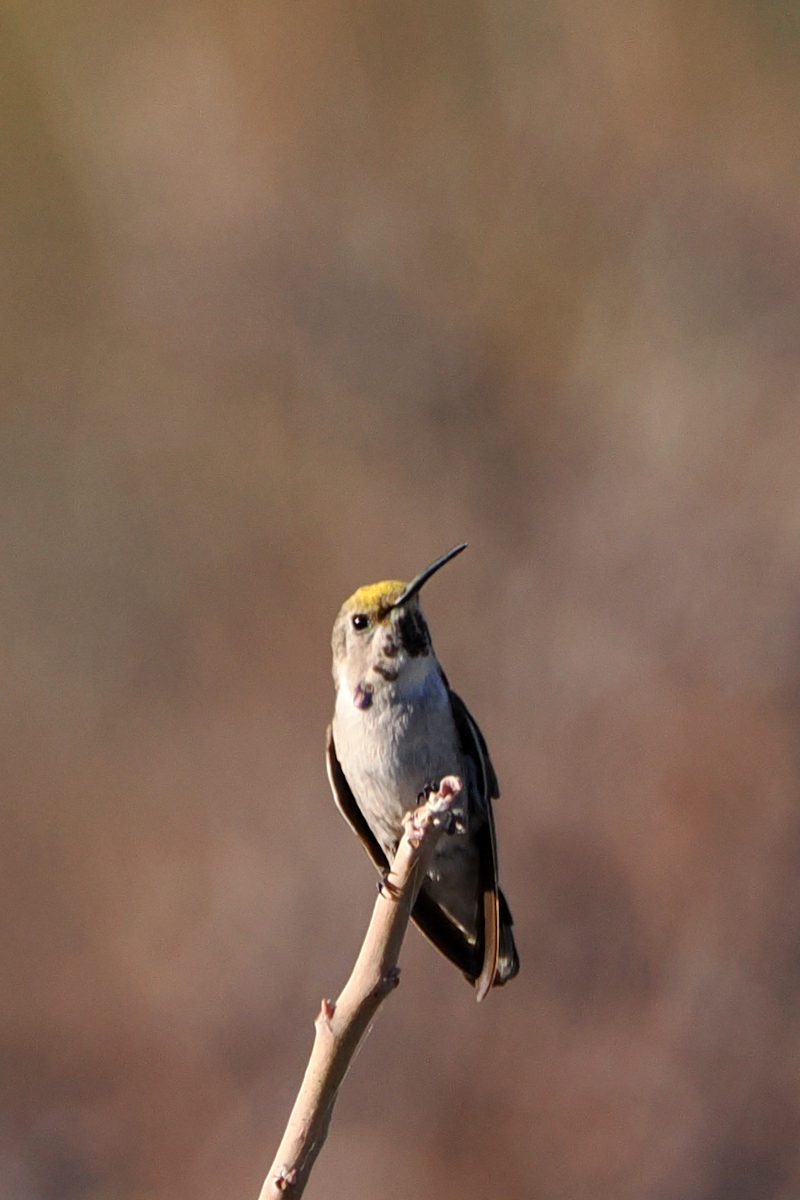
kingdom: Animalia
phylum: Chordata
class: Aves
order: Apodiformes
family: Trochilidae
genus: Calypte
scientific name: Calypte costae
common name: Costa's hummingbird
